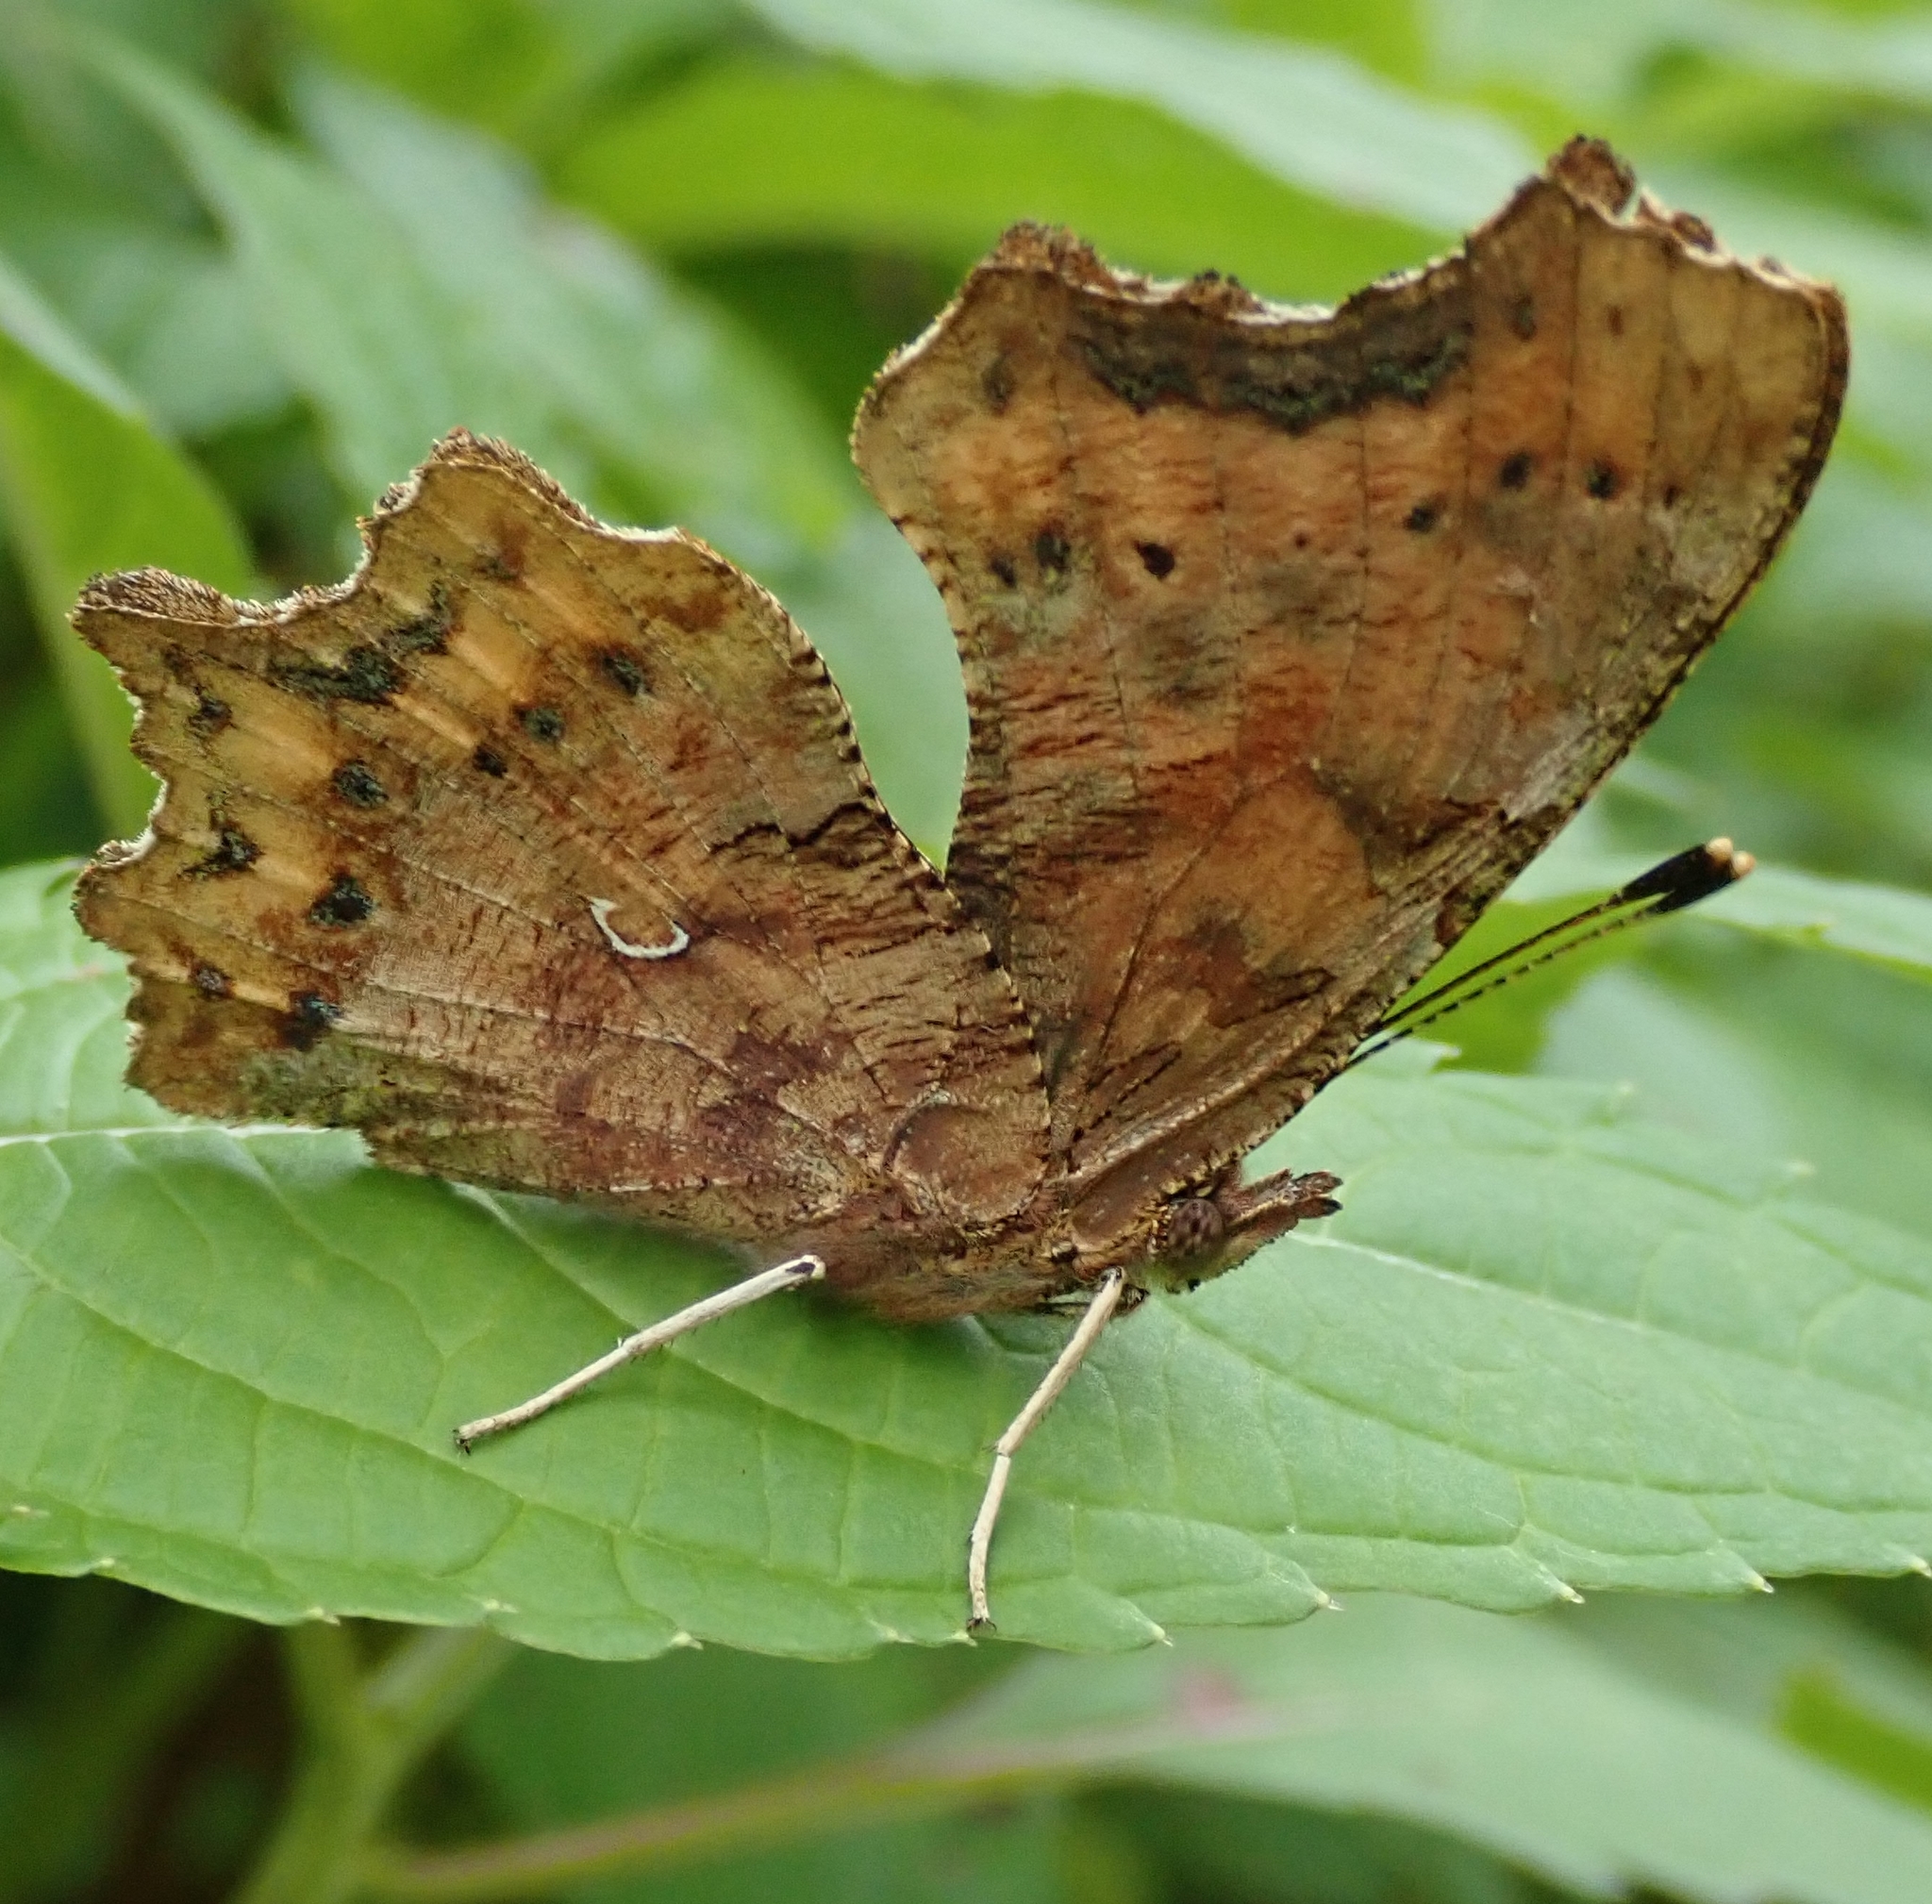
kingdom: Animalia
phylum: Arthropoda
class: Insecta
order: Lepidoptera
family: Nymphalidae
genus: Polygonia
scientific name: Polygonia c-album
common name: Comma
